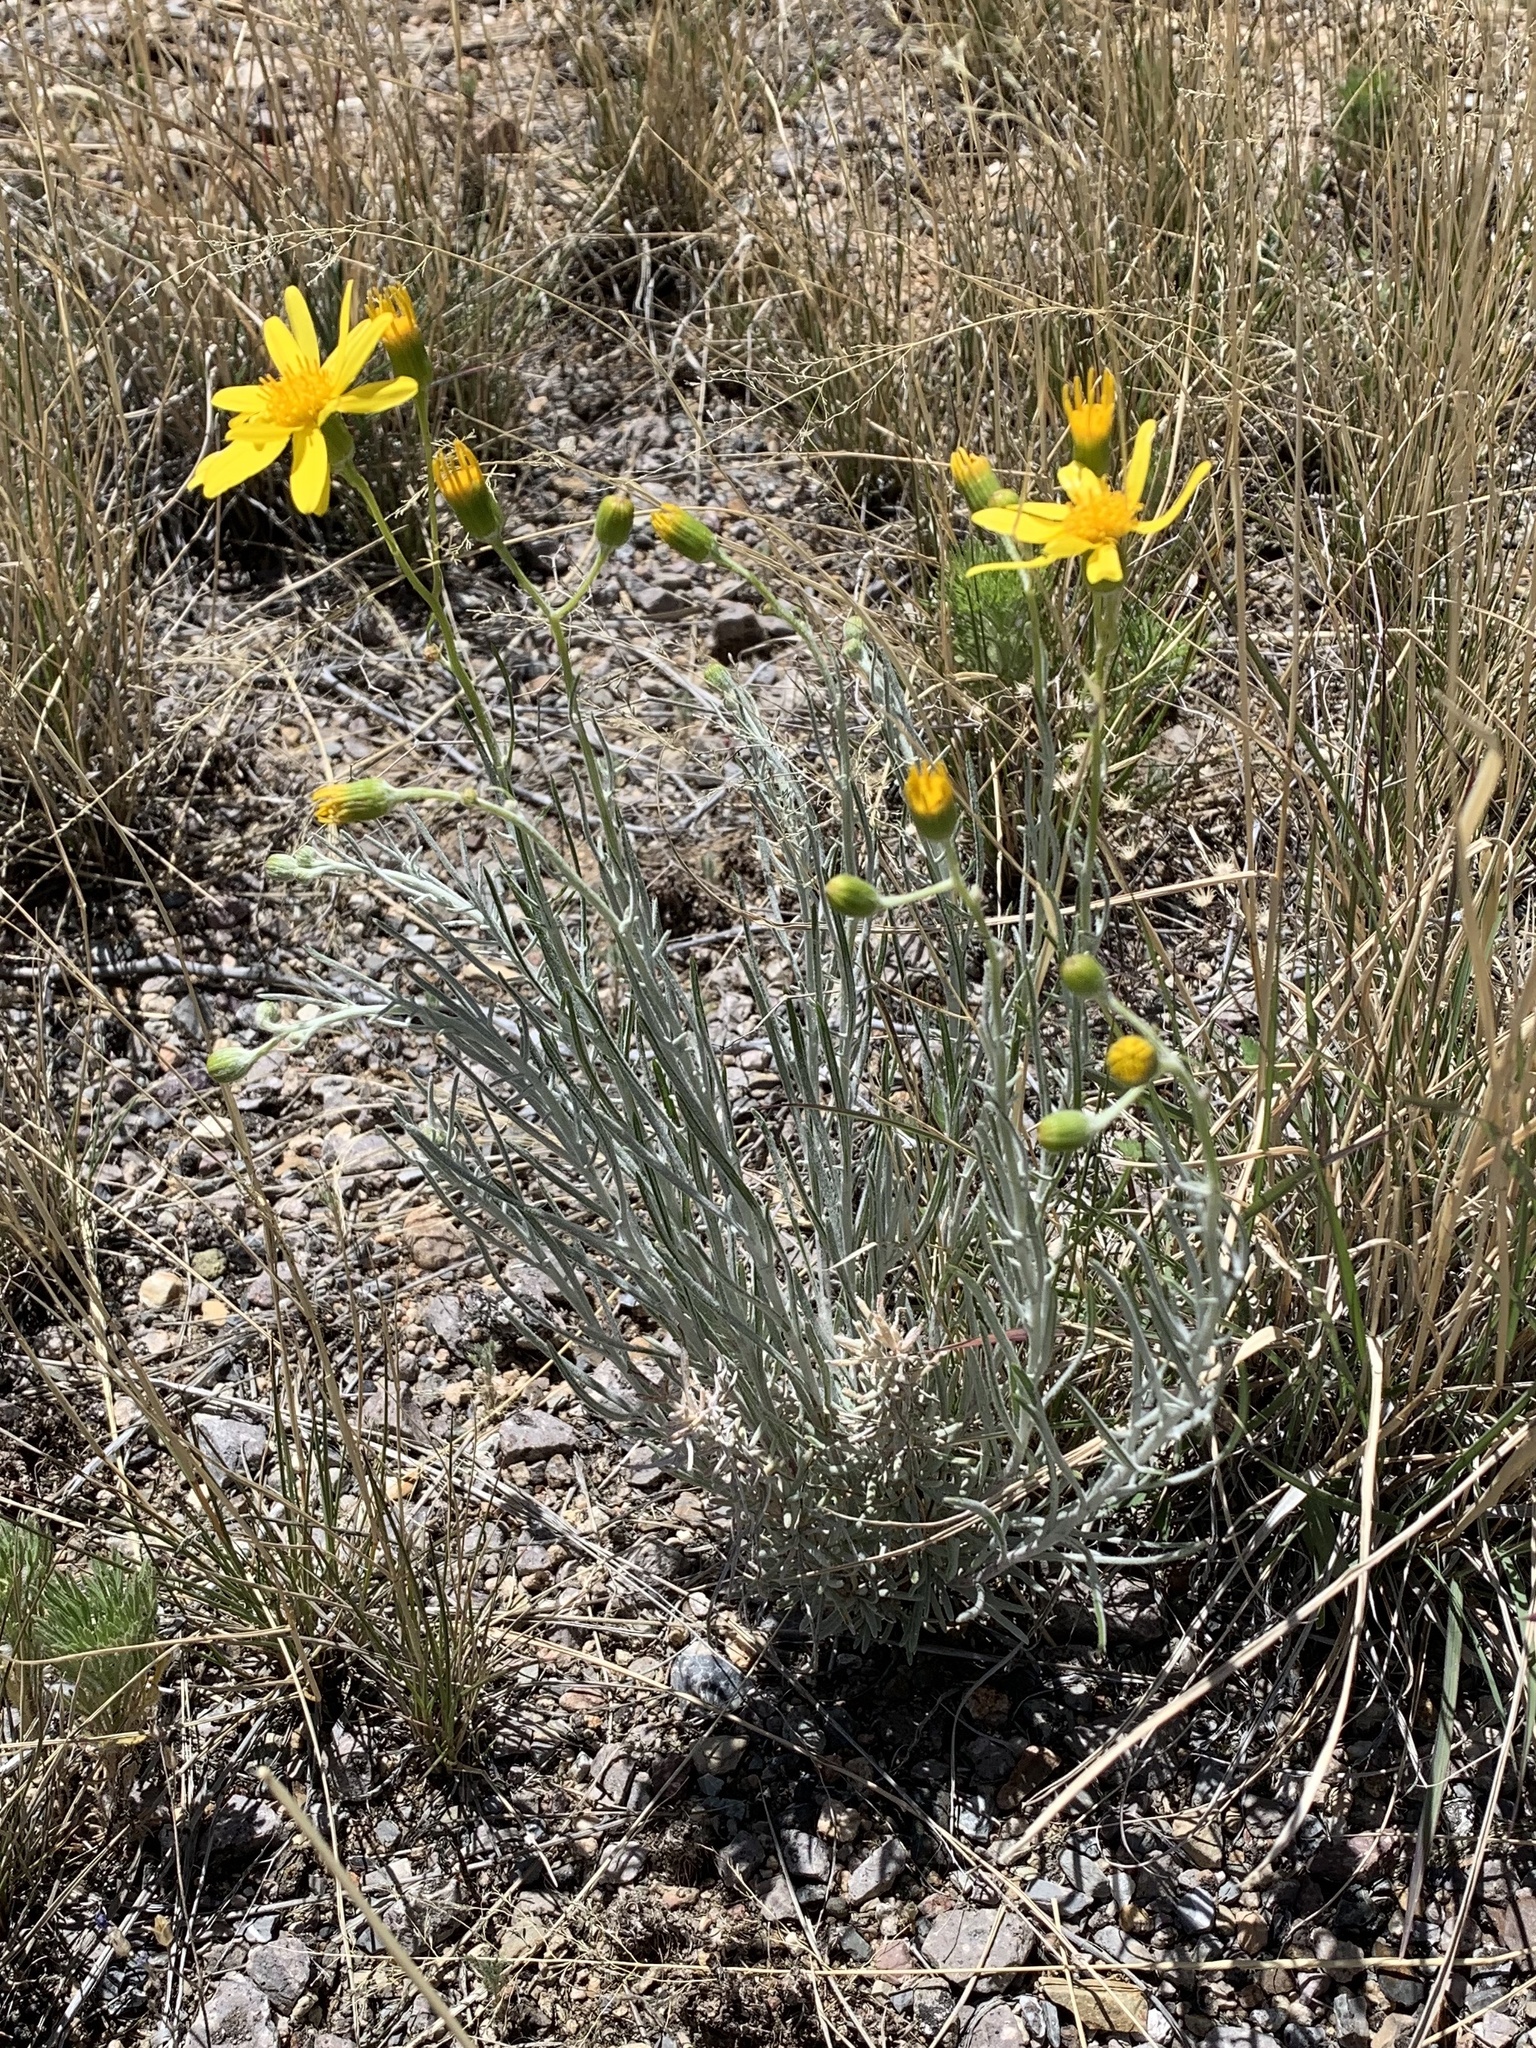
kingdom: Plantae
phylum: Tracheophyta
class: Magnoliopsida
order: Asterales
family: Asteraceae
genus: Senecio
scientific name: Senecio flaccidus
